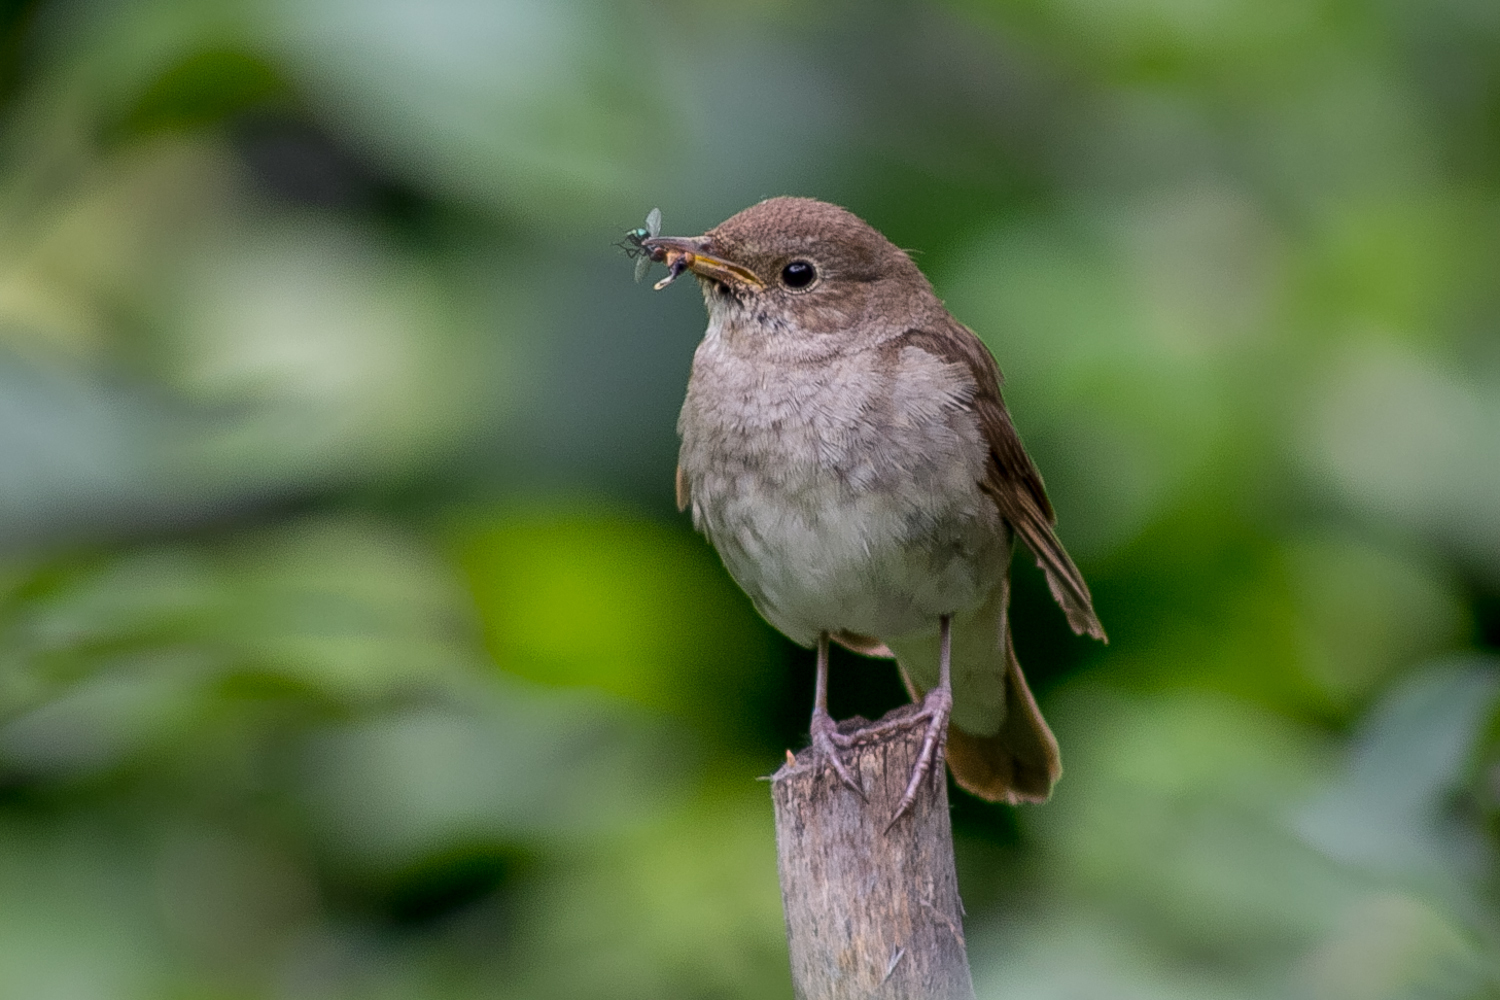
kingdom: Animalia
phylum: Chordata
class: Aves
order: Passeriformes
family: Muscicapidae
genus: Luscinia
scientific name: Luscinia luscinia
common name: Thrush nightingale
